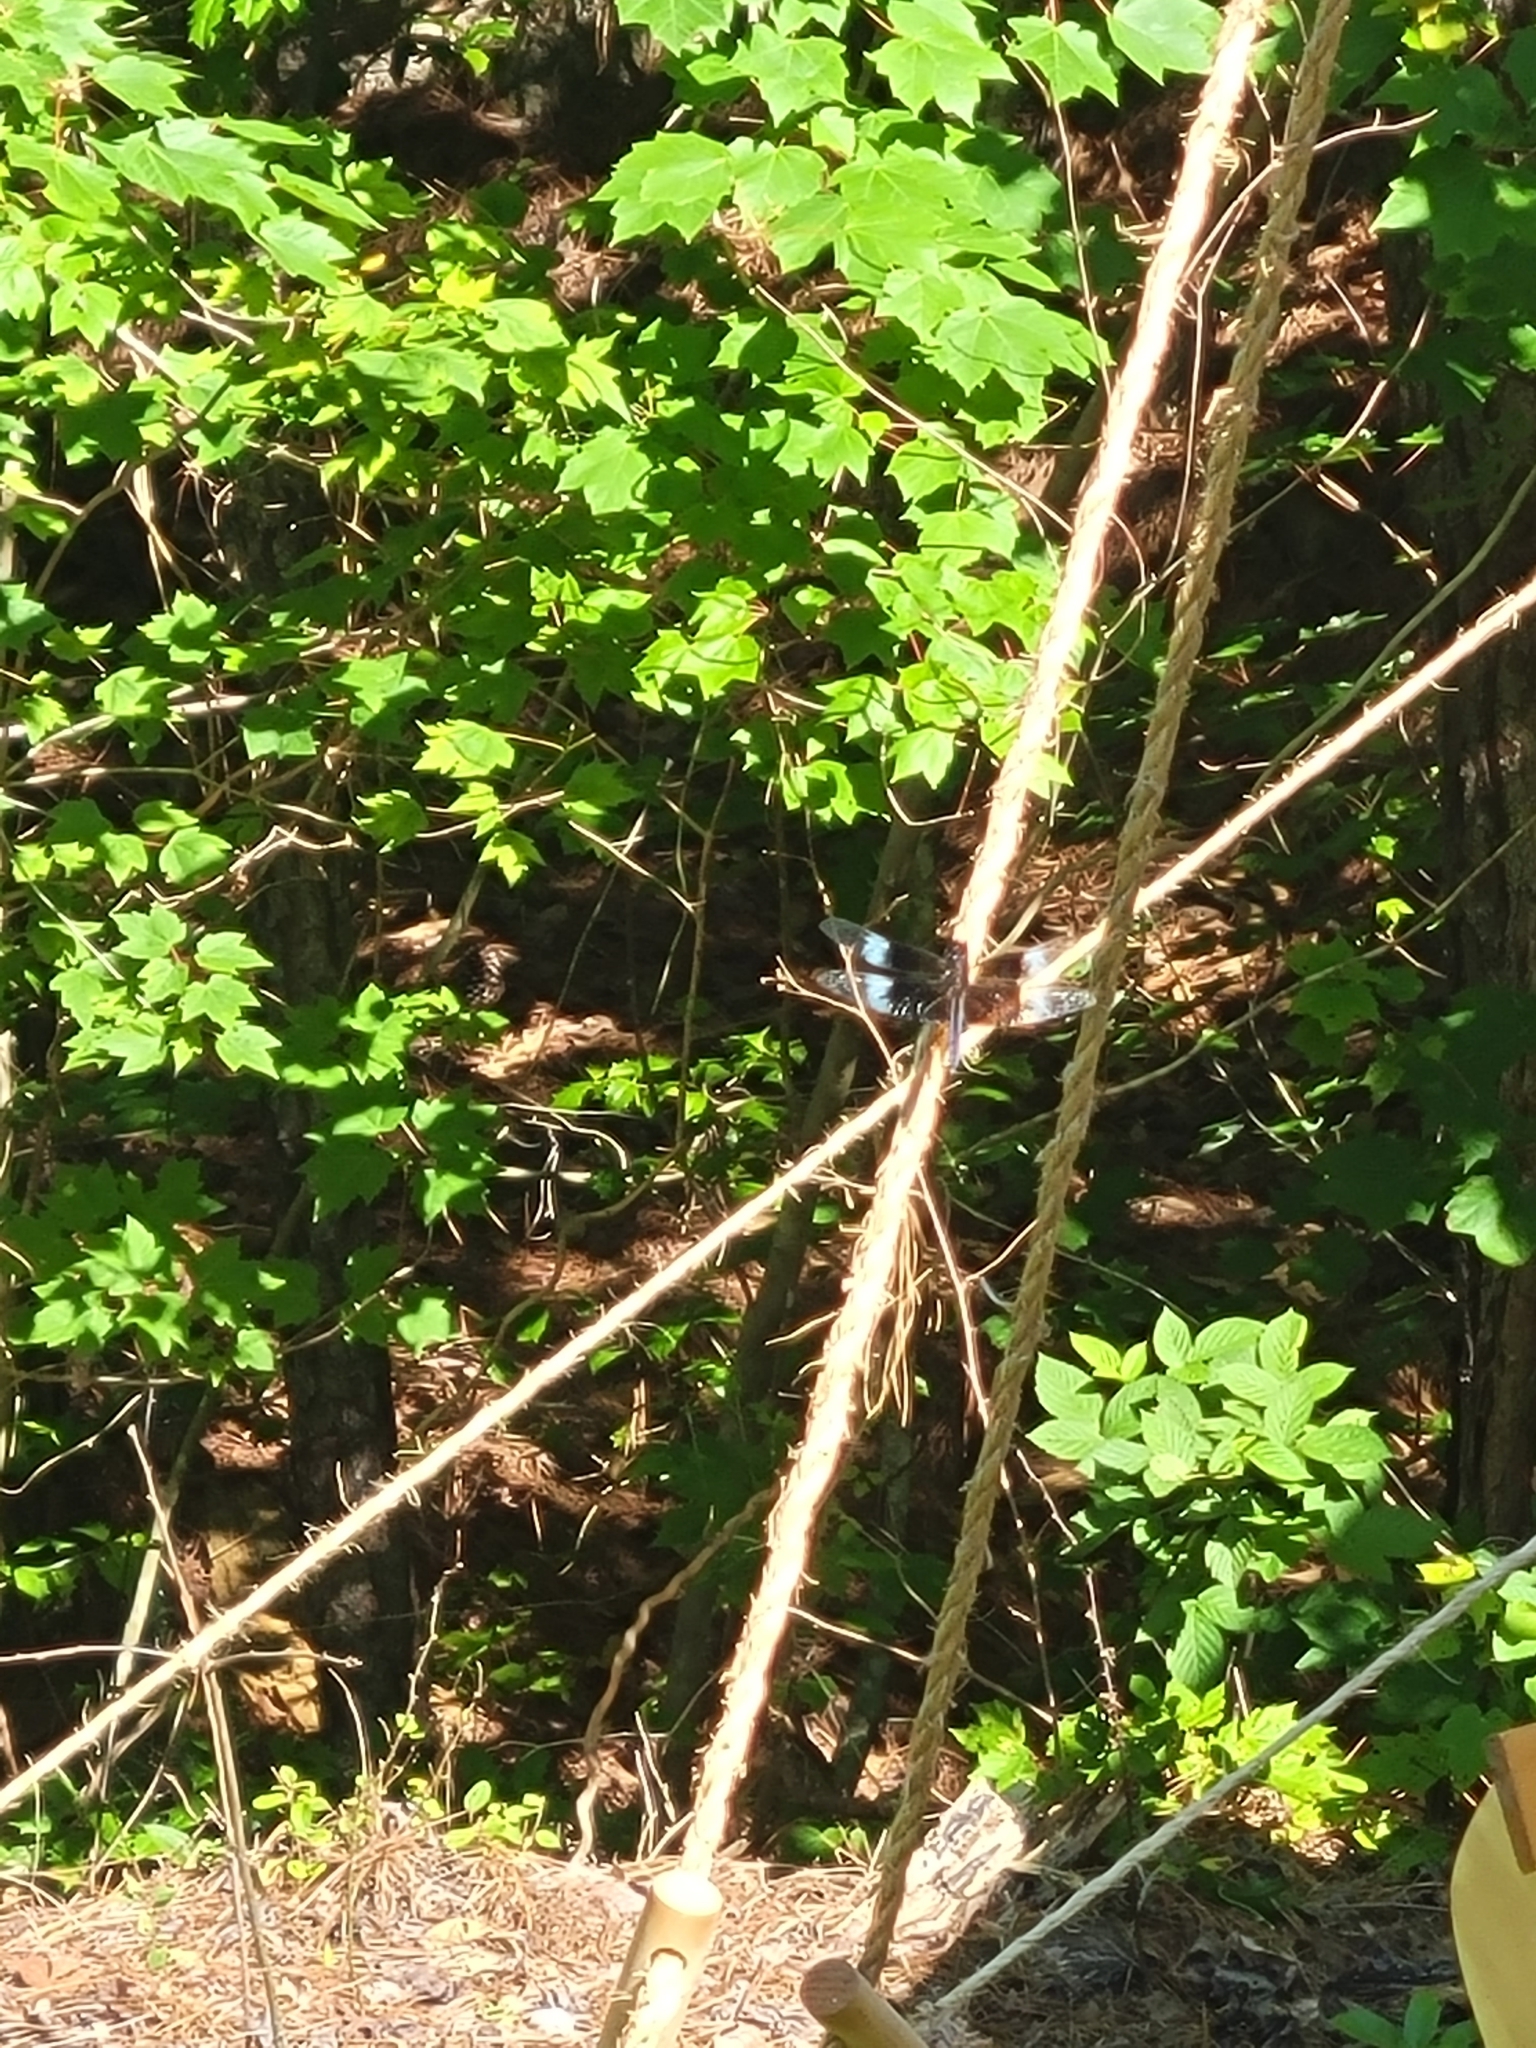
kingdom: Animalia
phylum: Arthropoda
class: Insecta
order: Odonata
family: Libellulidae
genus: Libellula
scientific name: Libellula luctuosa
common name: Widow skimmer
